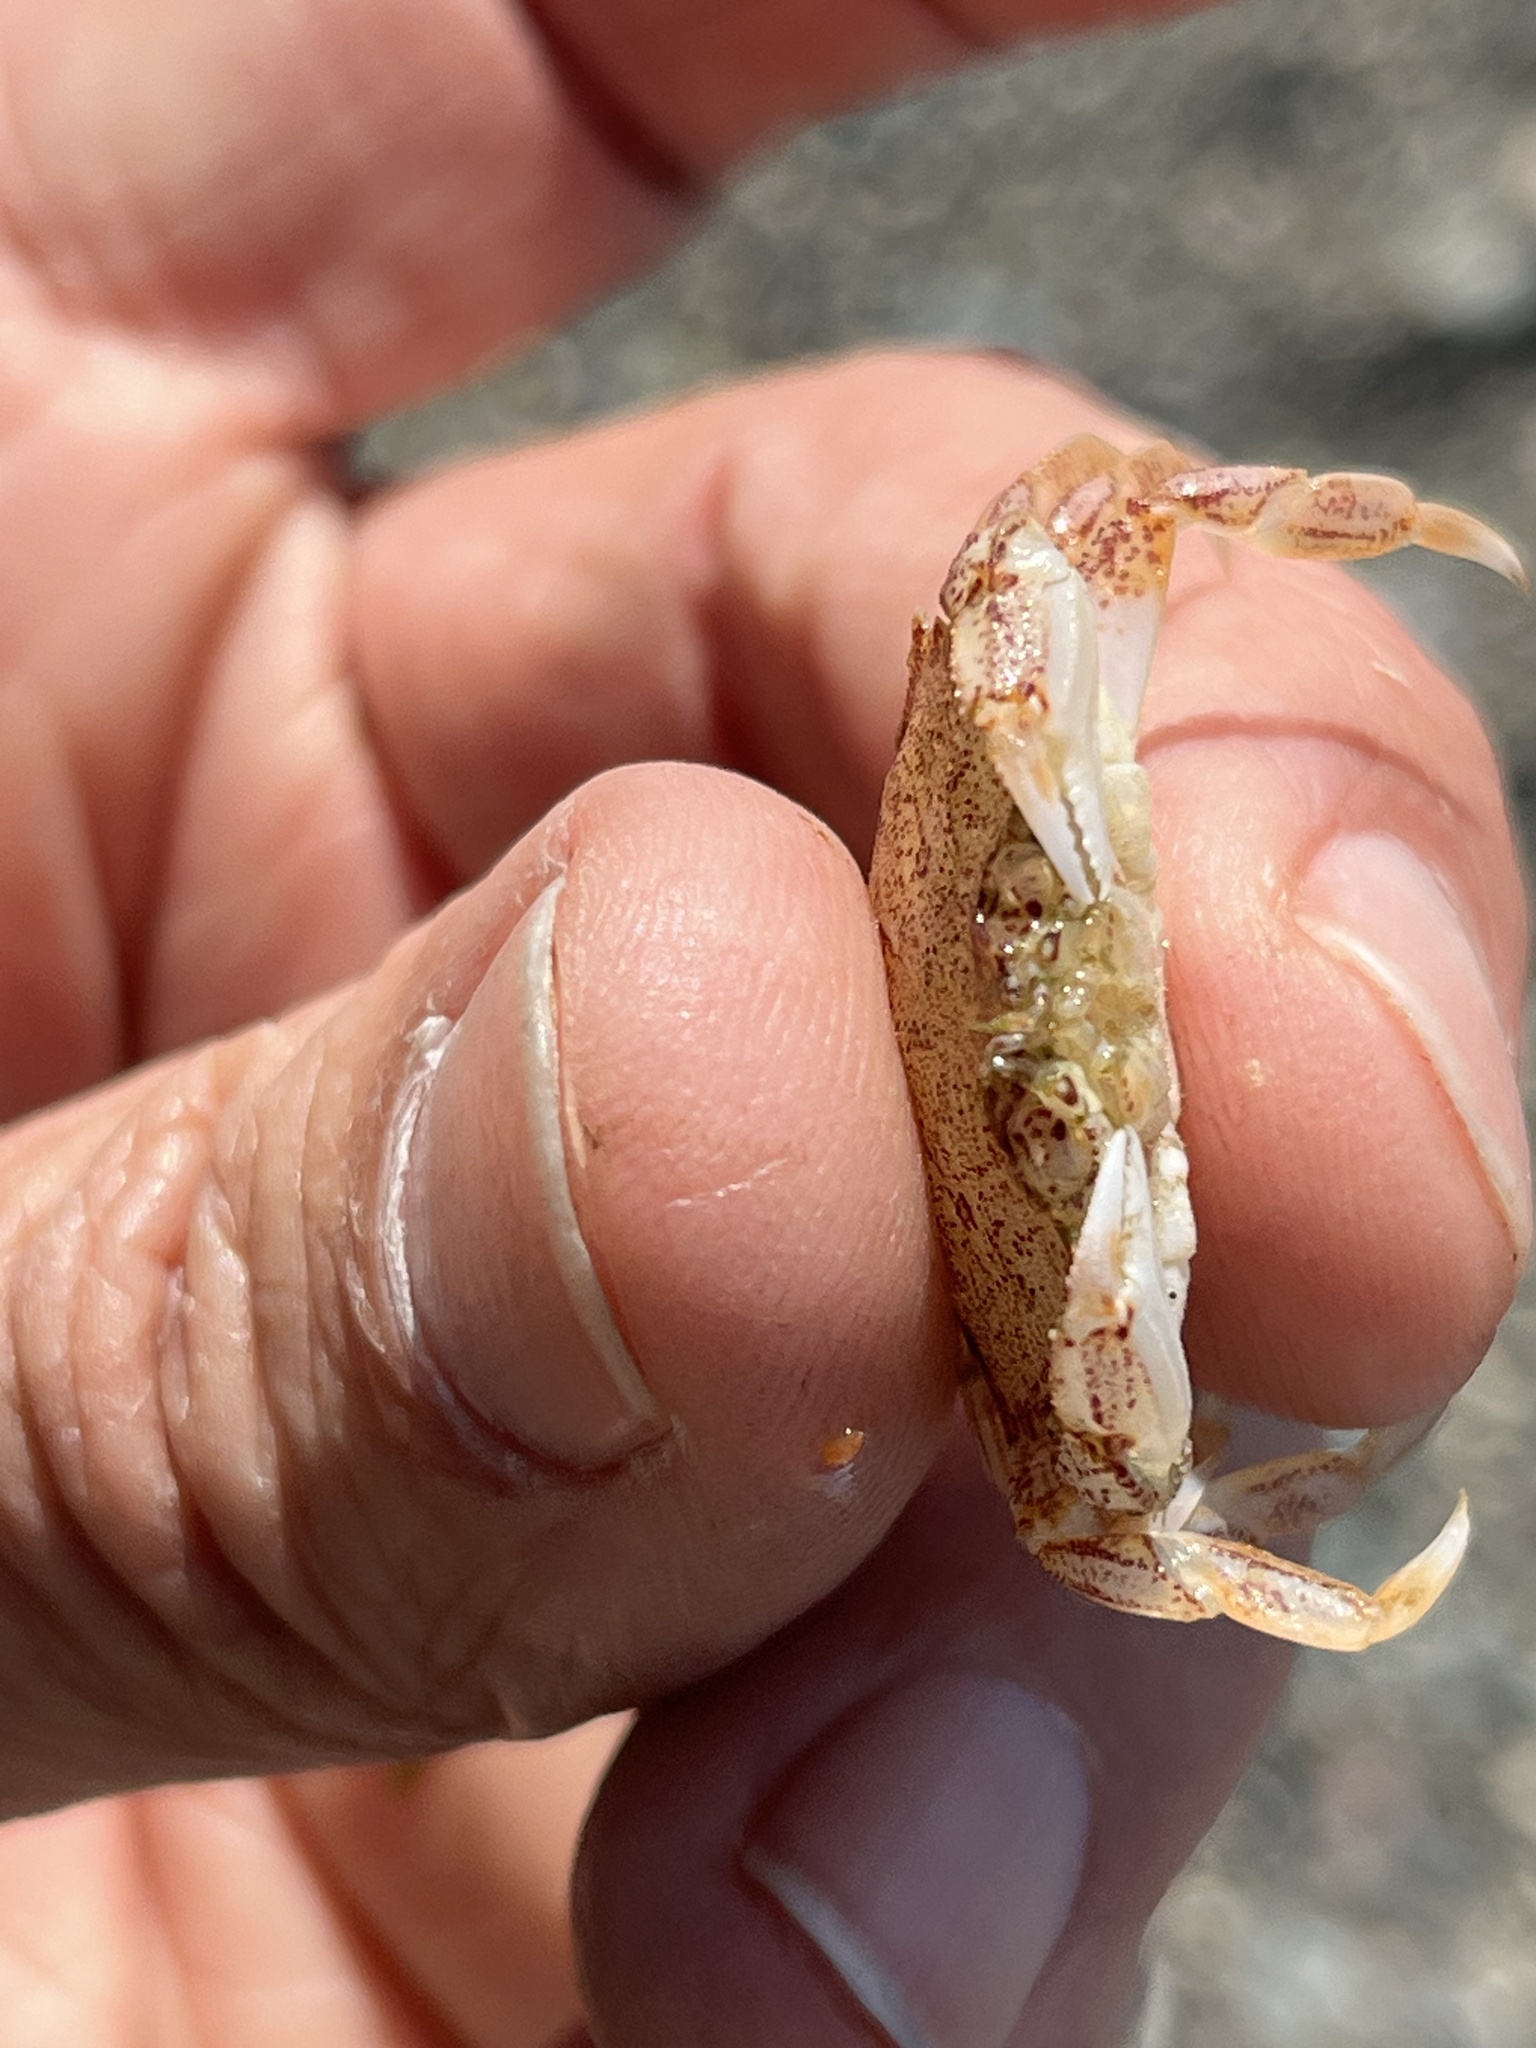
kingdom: Animalia
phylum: Arthropoda
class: Malacostraca
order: Decapoda
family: Cancridae
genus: Metacarcinus
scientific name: Metacarcinus magister
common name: Californian crab
